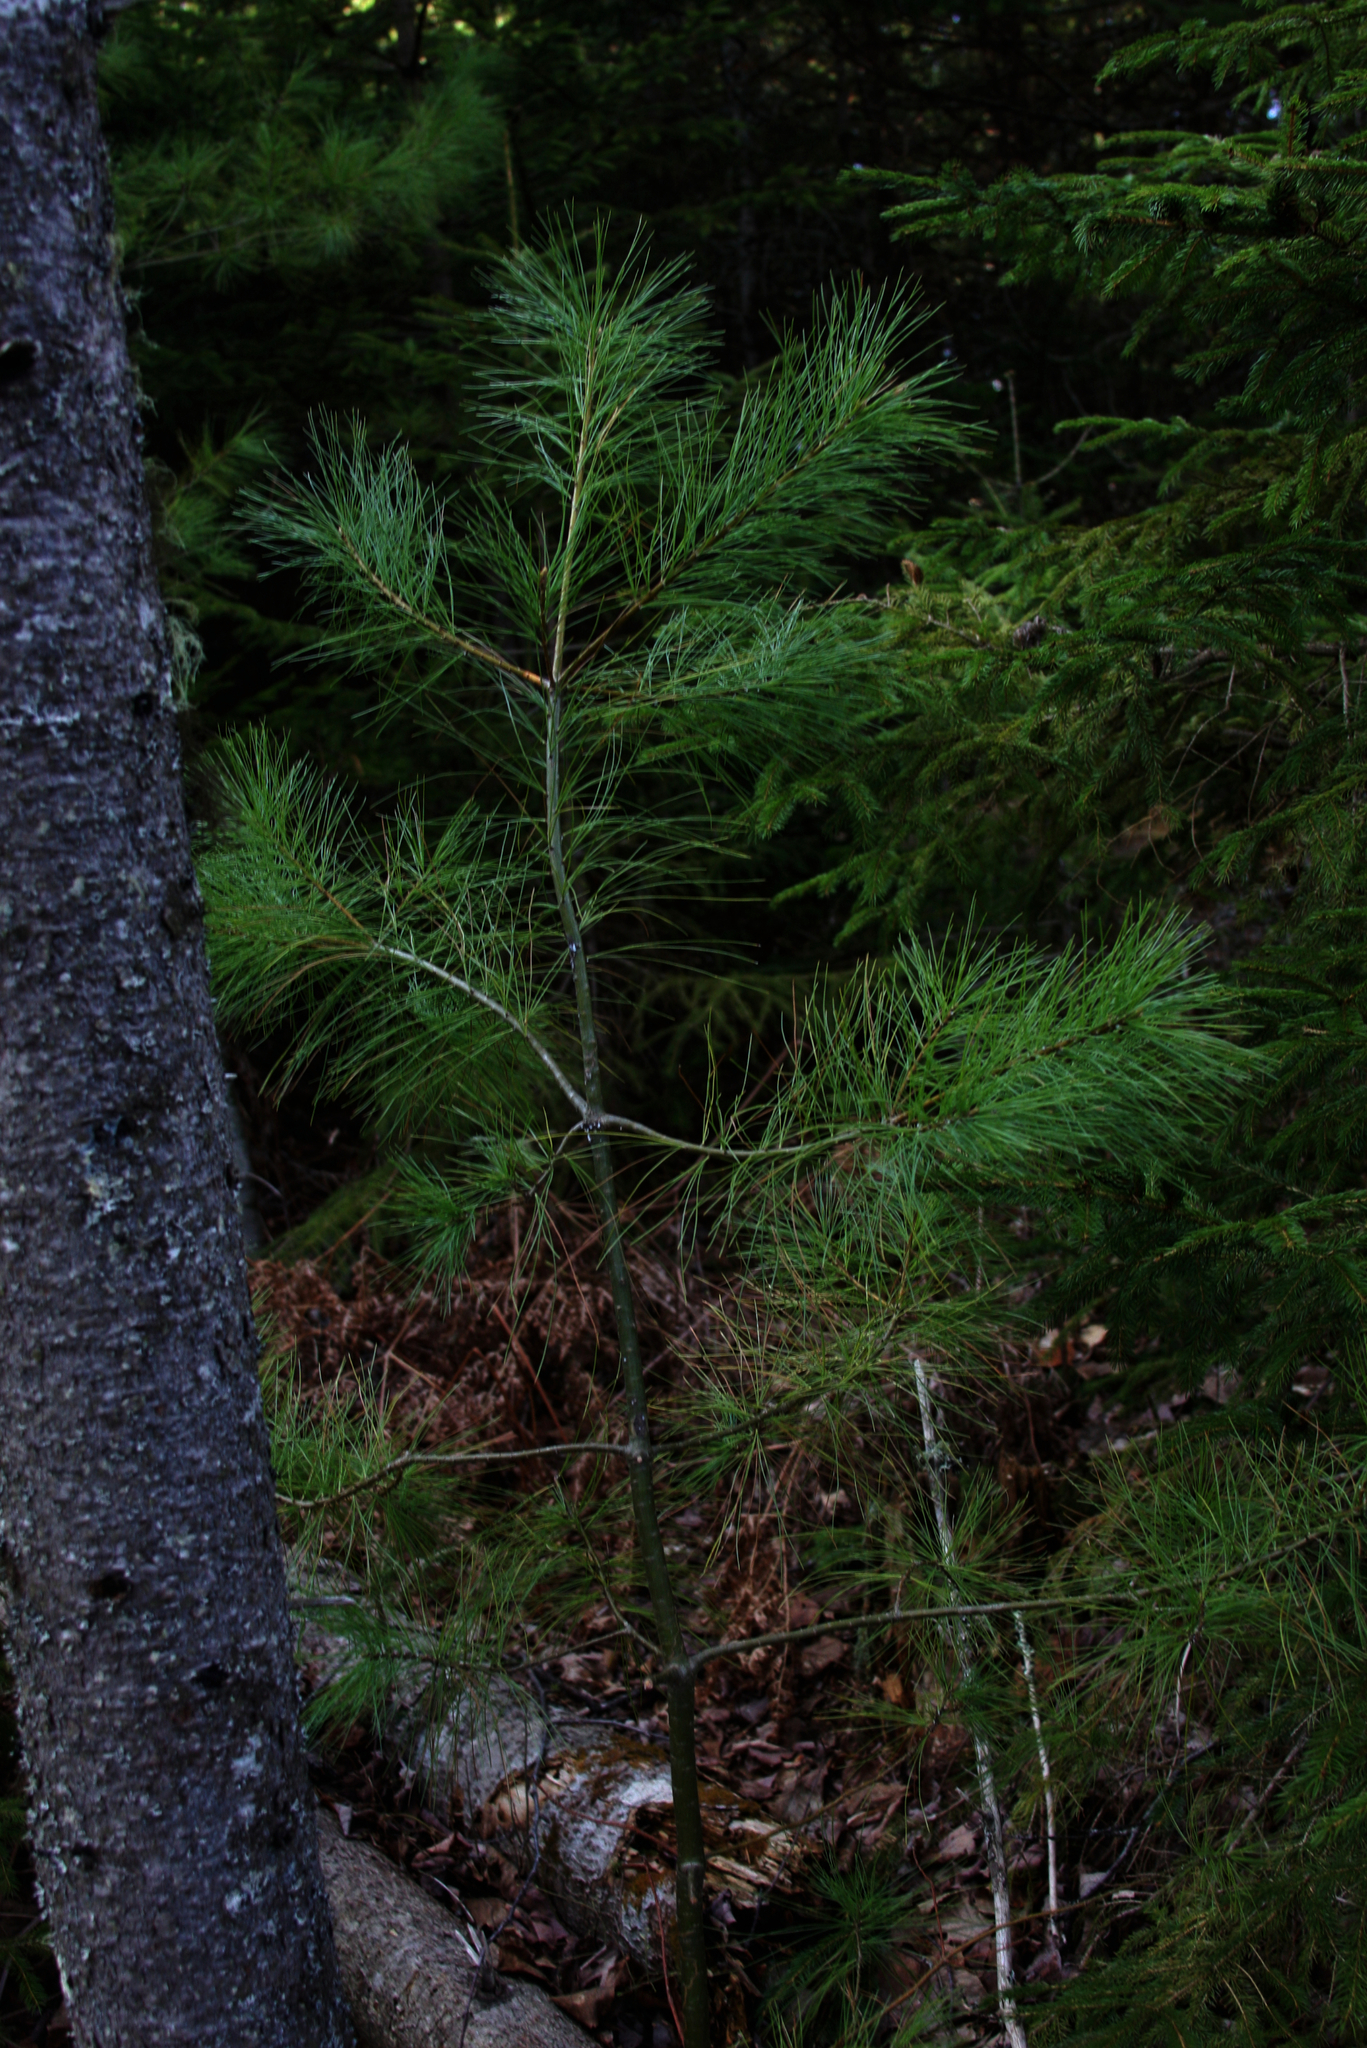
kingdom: Plantae
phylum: Tracheophyta
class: Pinopsida
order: Pinales
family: Pinaceae
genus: Pinus
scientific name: Pinus strobus
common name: Weymouth pine
